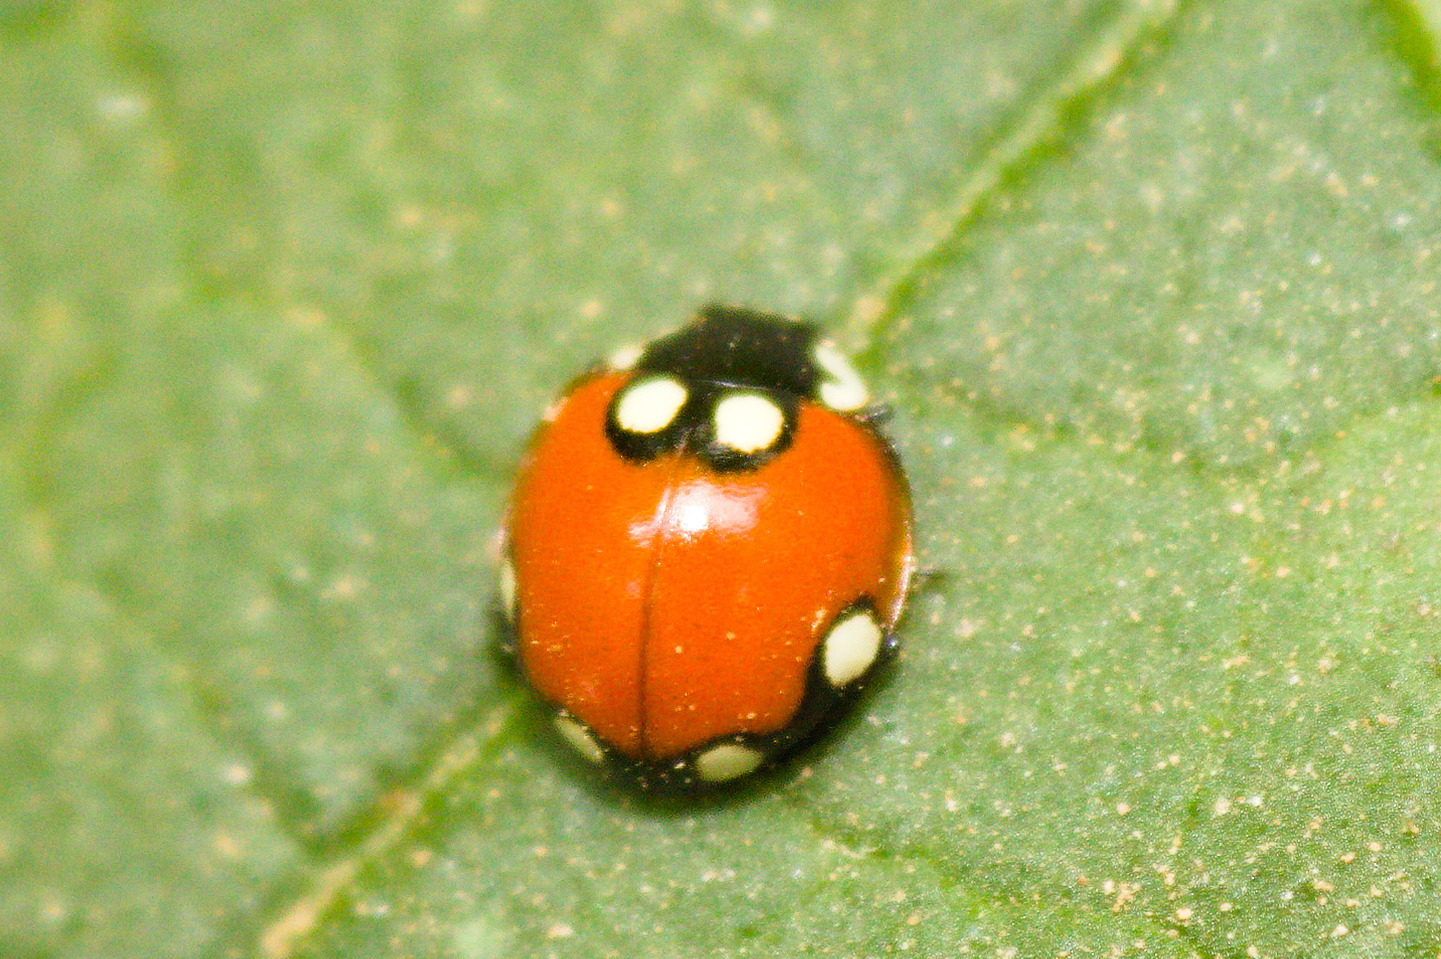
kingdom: Animalia
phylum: Arthropoda
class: Insecta
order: Coleoptera
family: Coccinellidae
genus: Cycloneda
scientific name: Cycloneda
